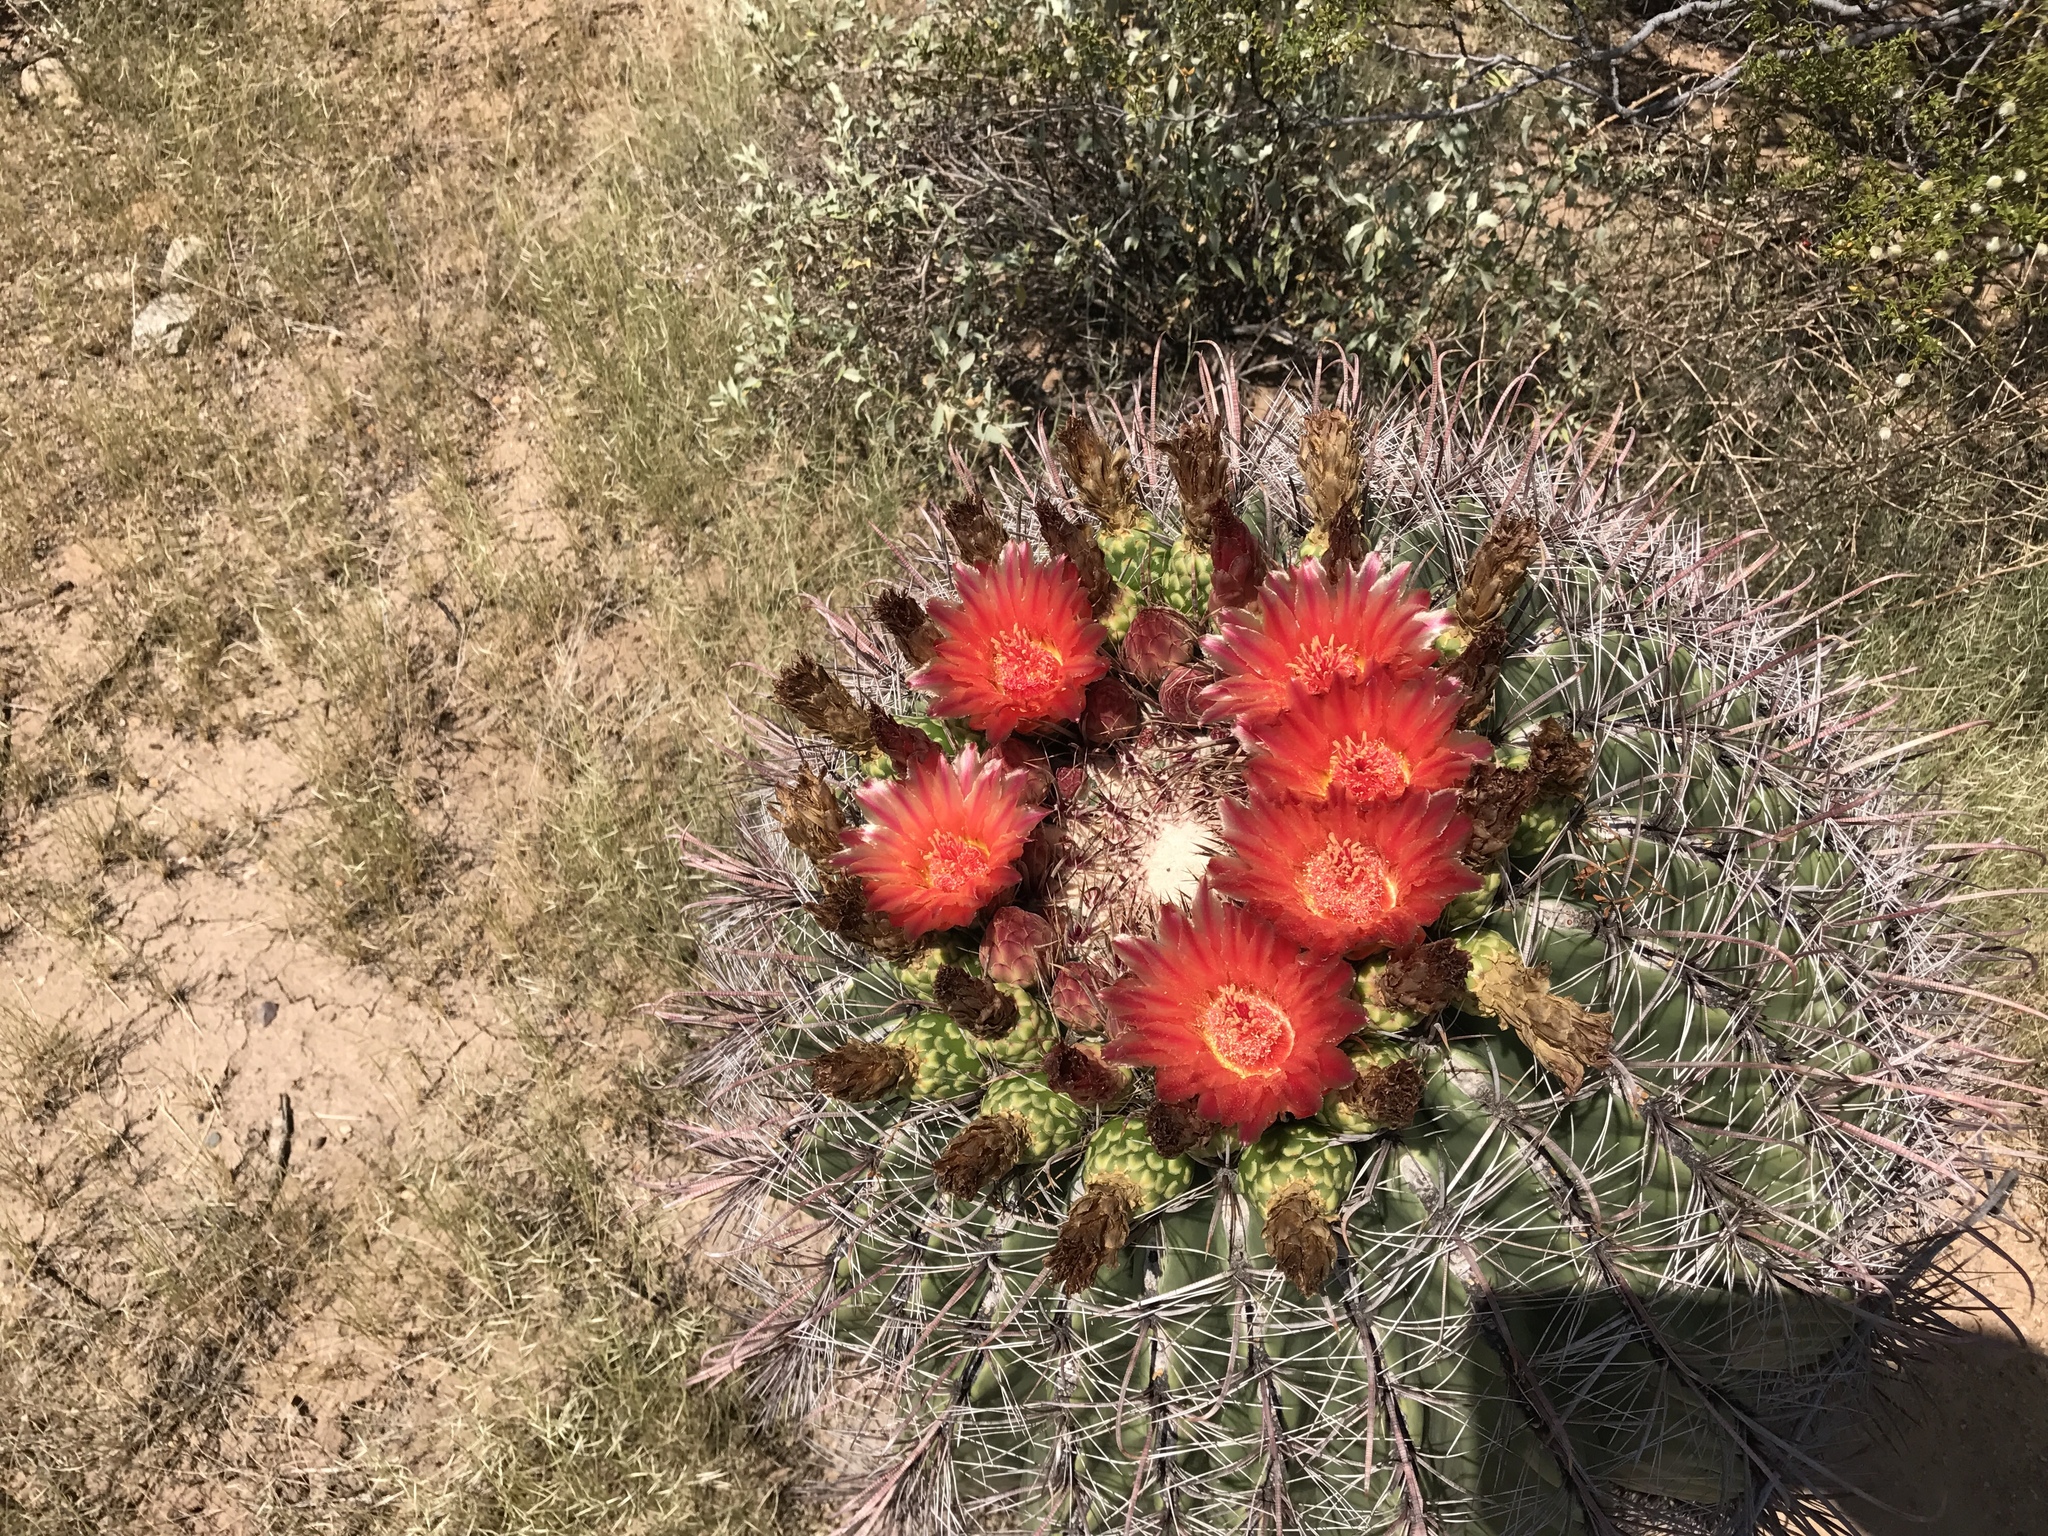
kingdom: Plantae
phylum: Tracheophyta
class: Magnoliopsida
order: Caryophyllales
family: Cactaceae
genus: Ferocactus
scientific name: Ferocactus wislizeni
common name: Candy barrel cactus
